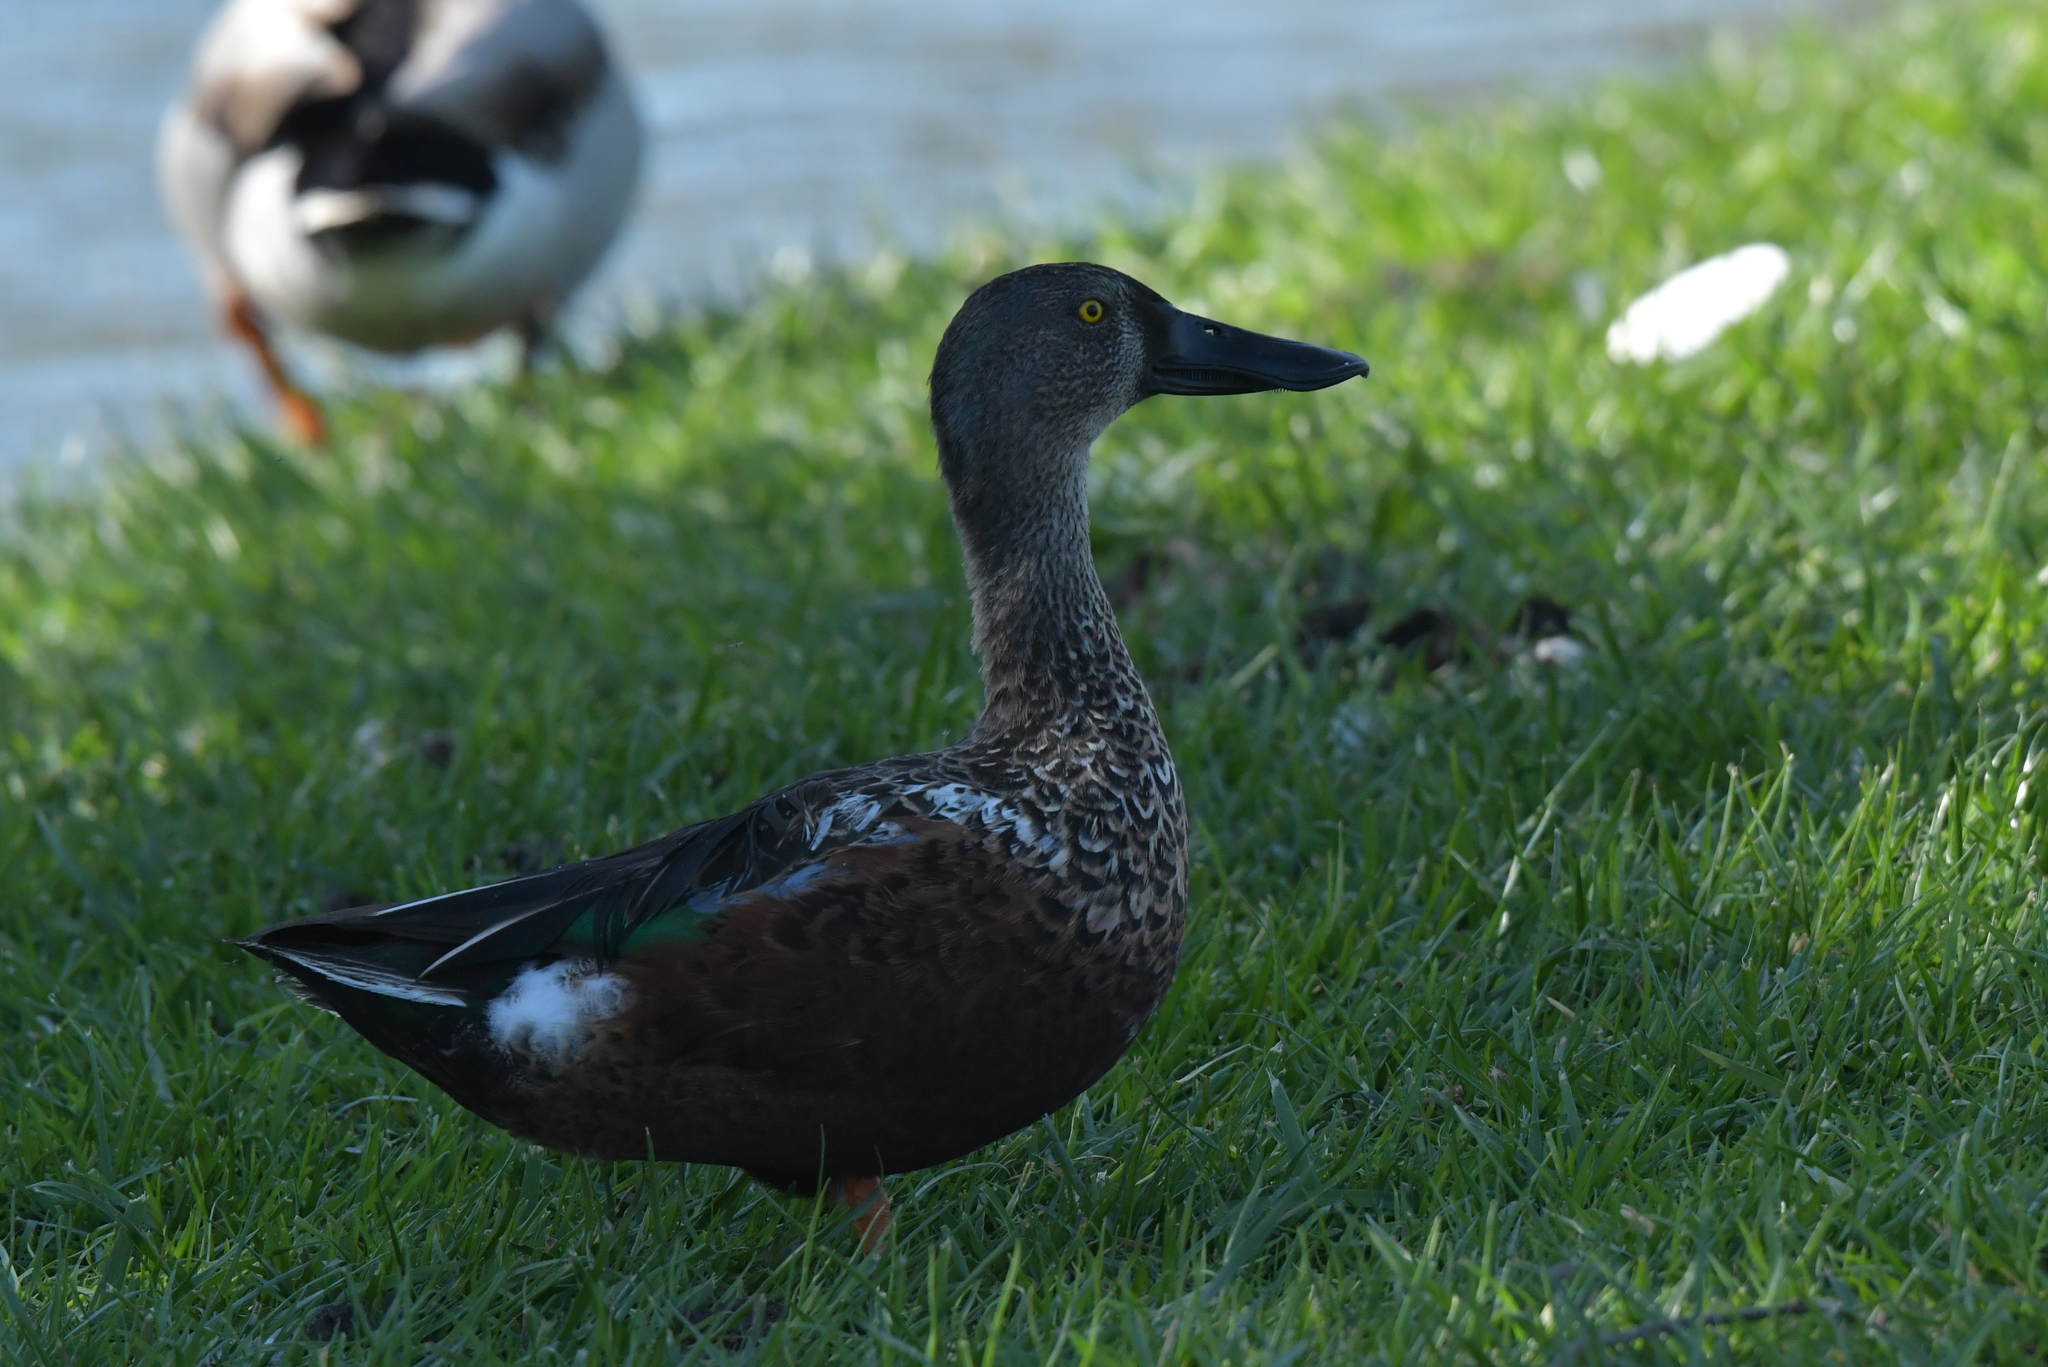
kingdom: Animalia
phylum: Chordata
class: Aves
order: Anseriformes
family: Anatidae
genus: Spatula
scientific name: Spatula rhynchotis
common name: Australian shoveler
